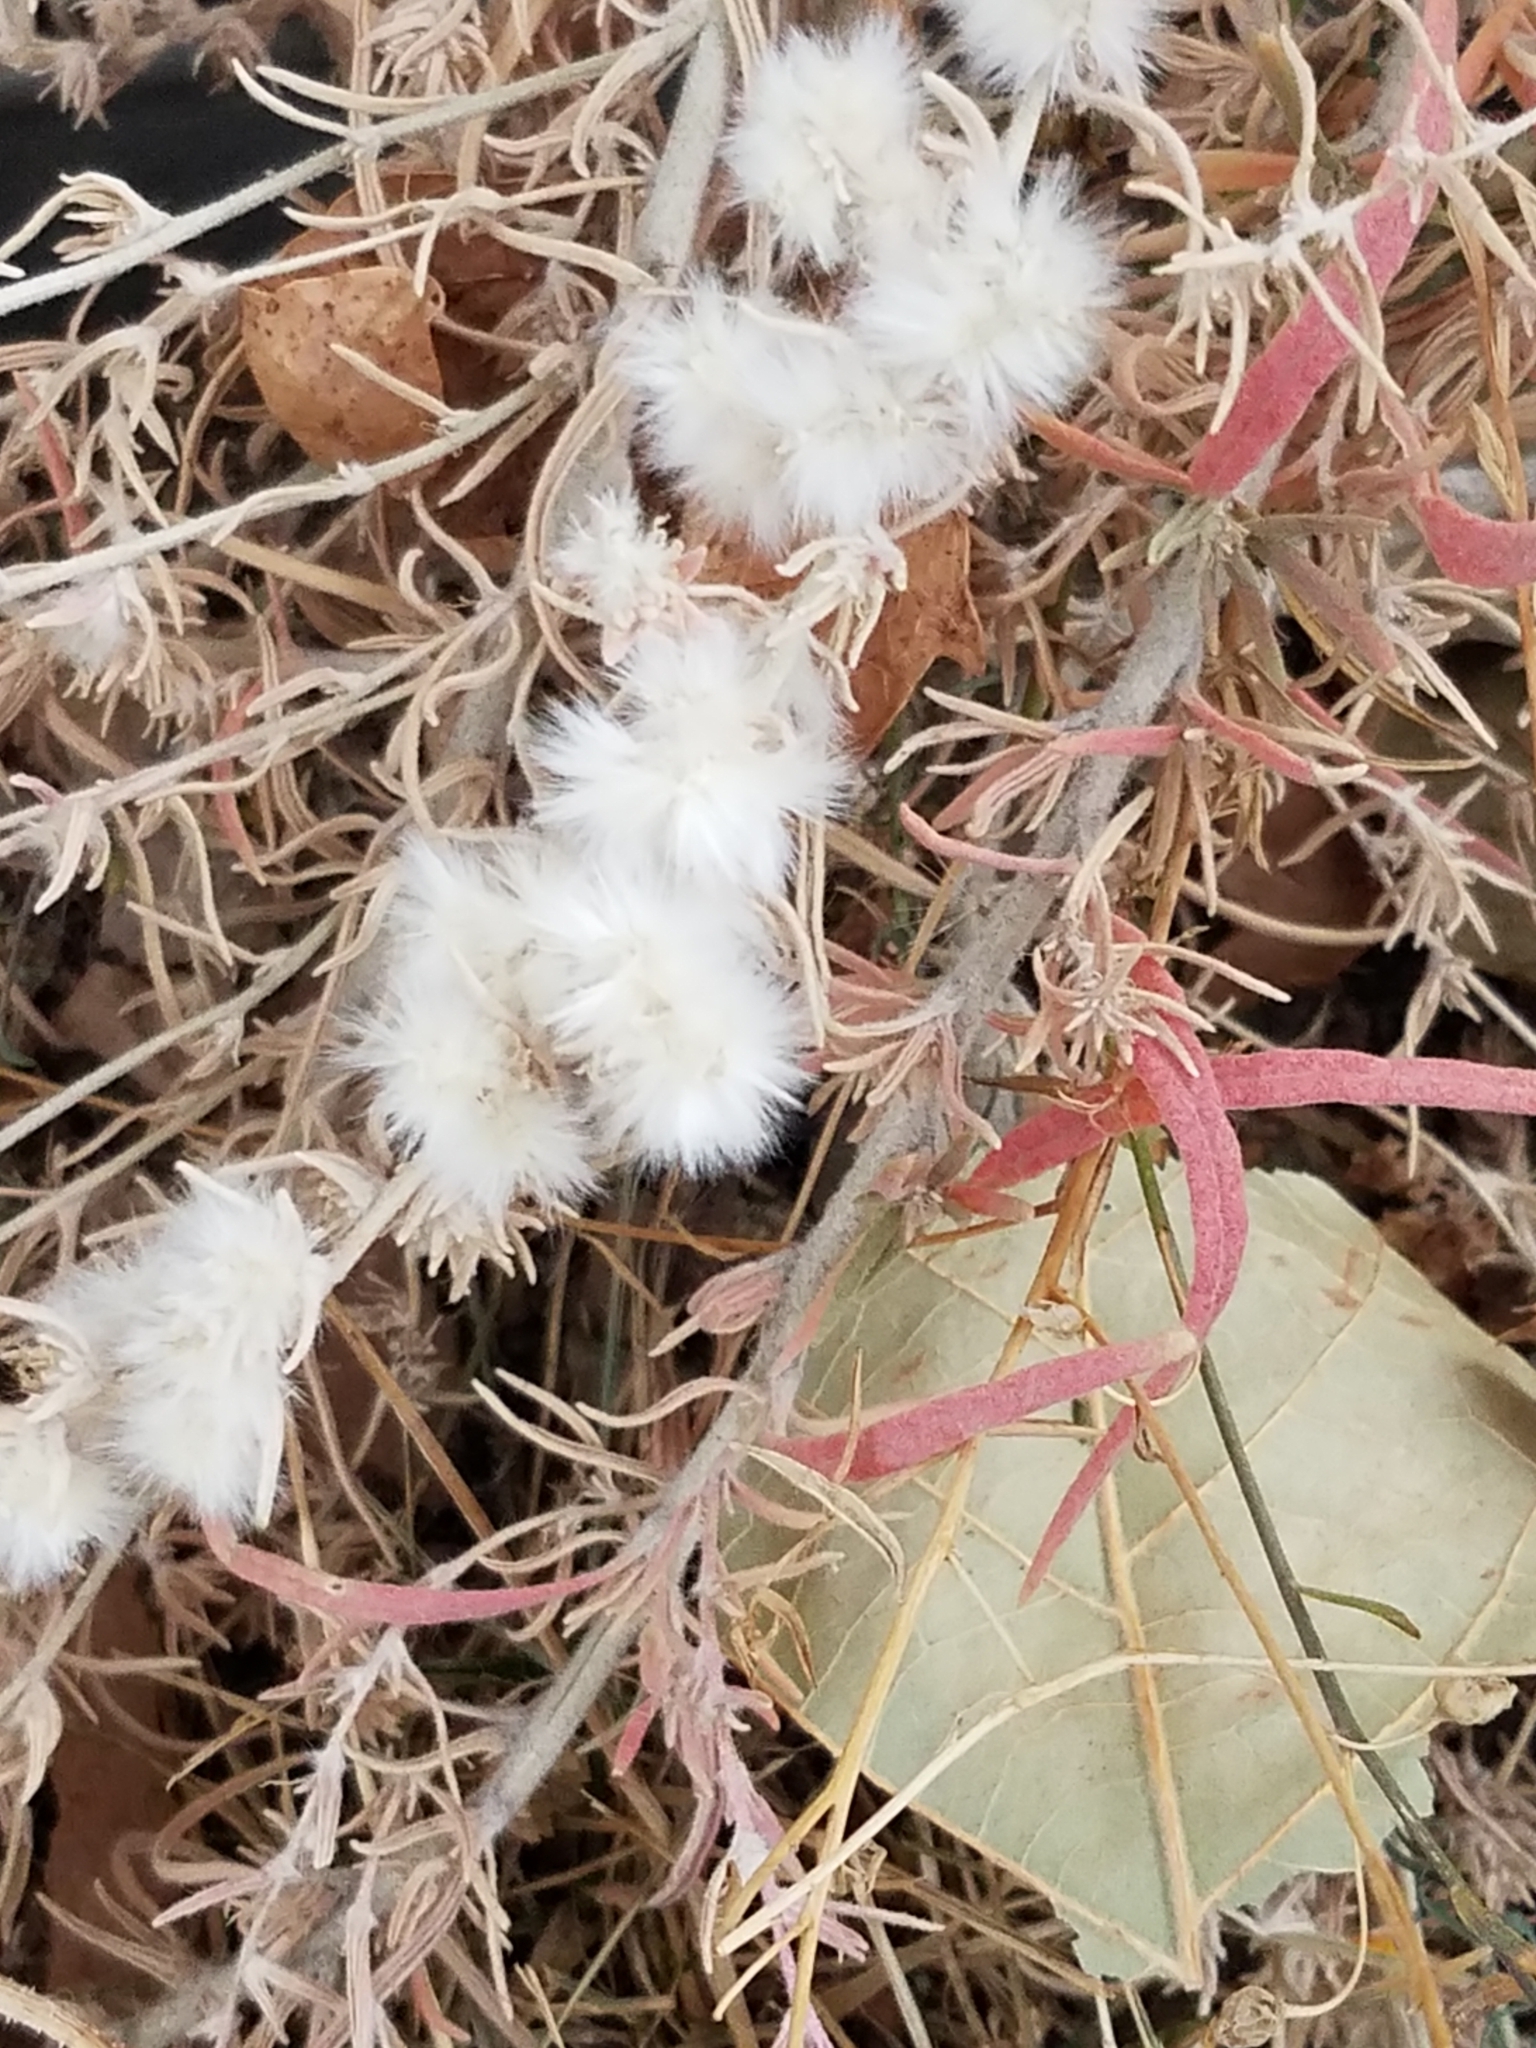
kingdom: Plantae
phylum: Tracheophyta
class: Magnoliopsida
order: Caryophyllales
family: Amaranthaceae
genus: Krascheninnikovia
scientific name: Krascheninnikovia lanata
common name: Winterfat
